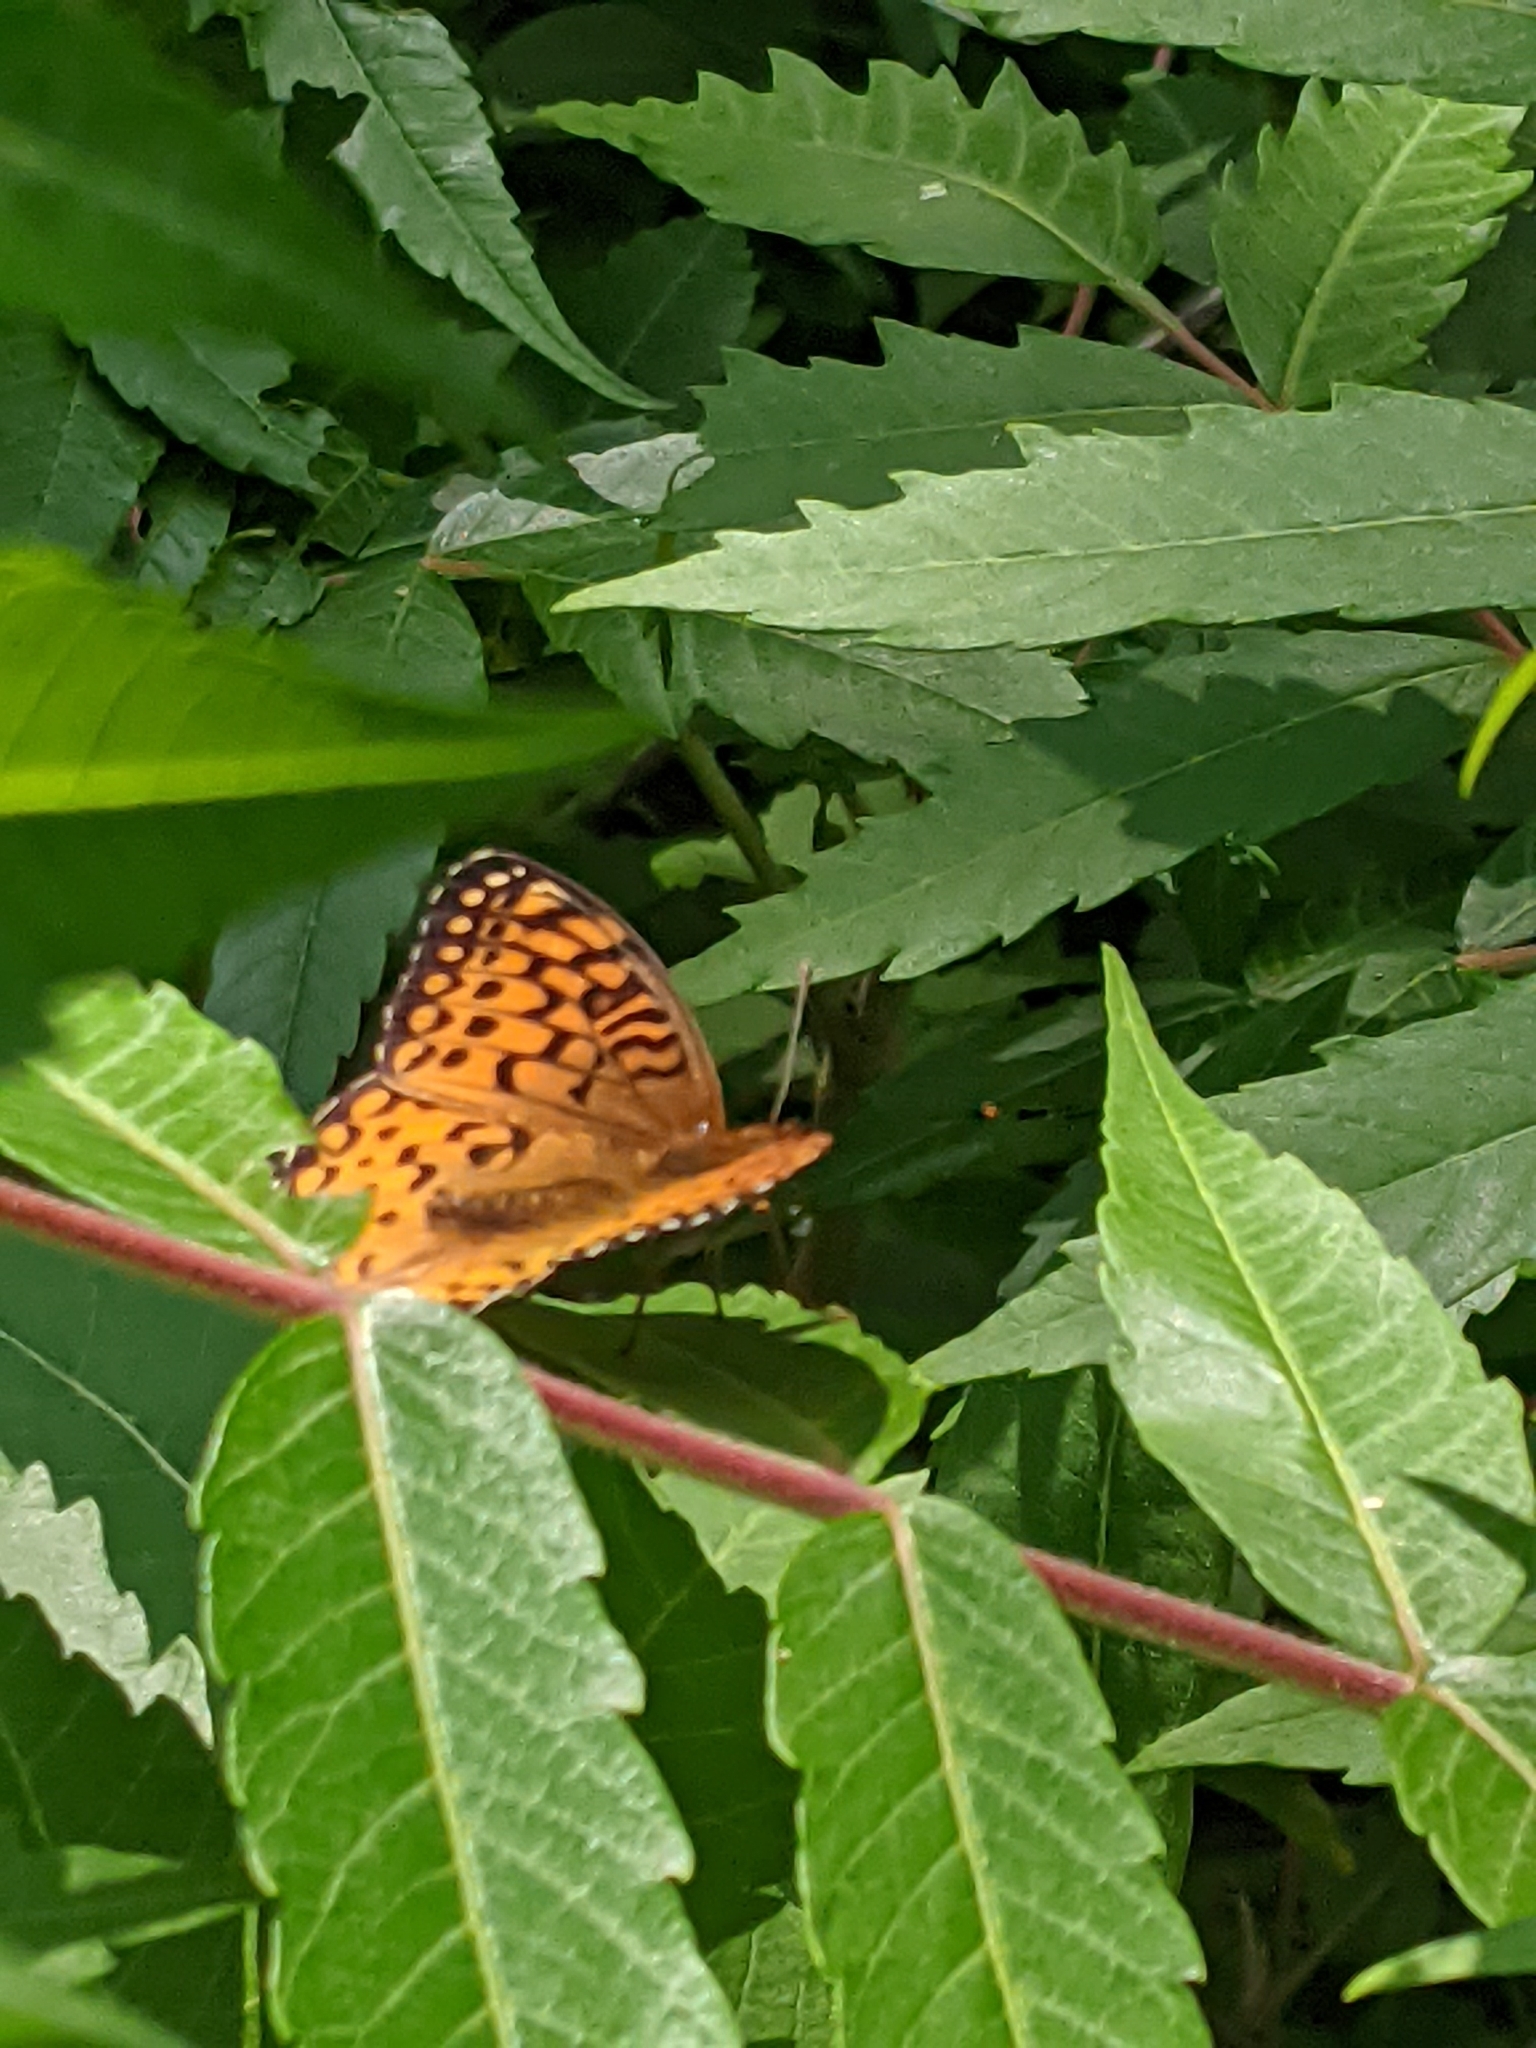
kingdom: Animalia
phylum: Arthropoda
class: Insecta
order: Lepidoptera
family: Nymphalidae
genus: Speyeria
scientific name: Speyeria atlantis
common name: Atlantis fritillary
